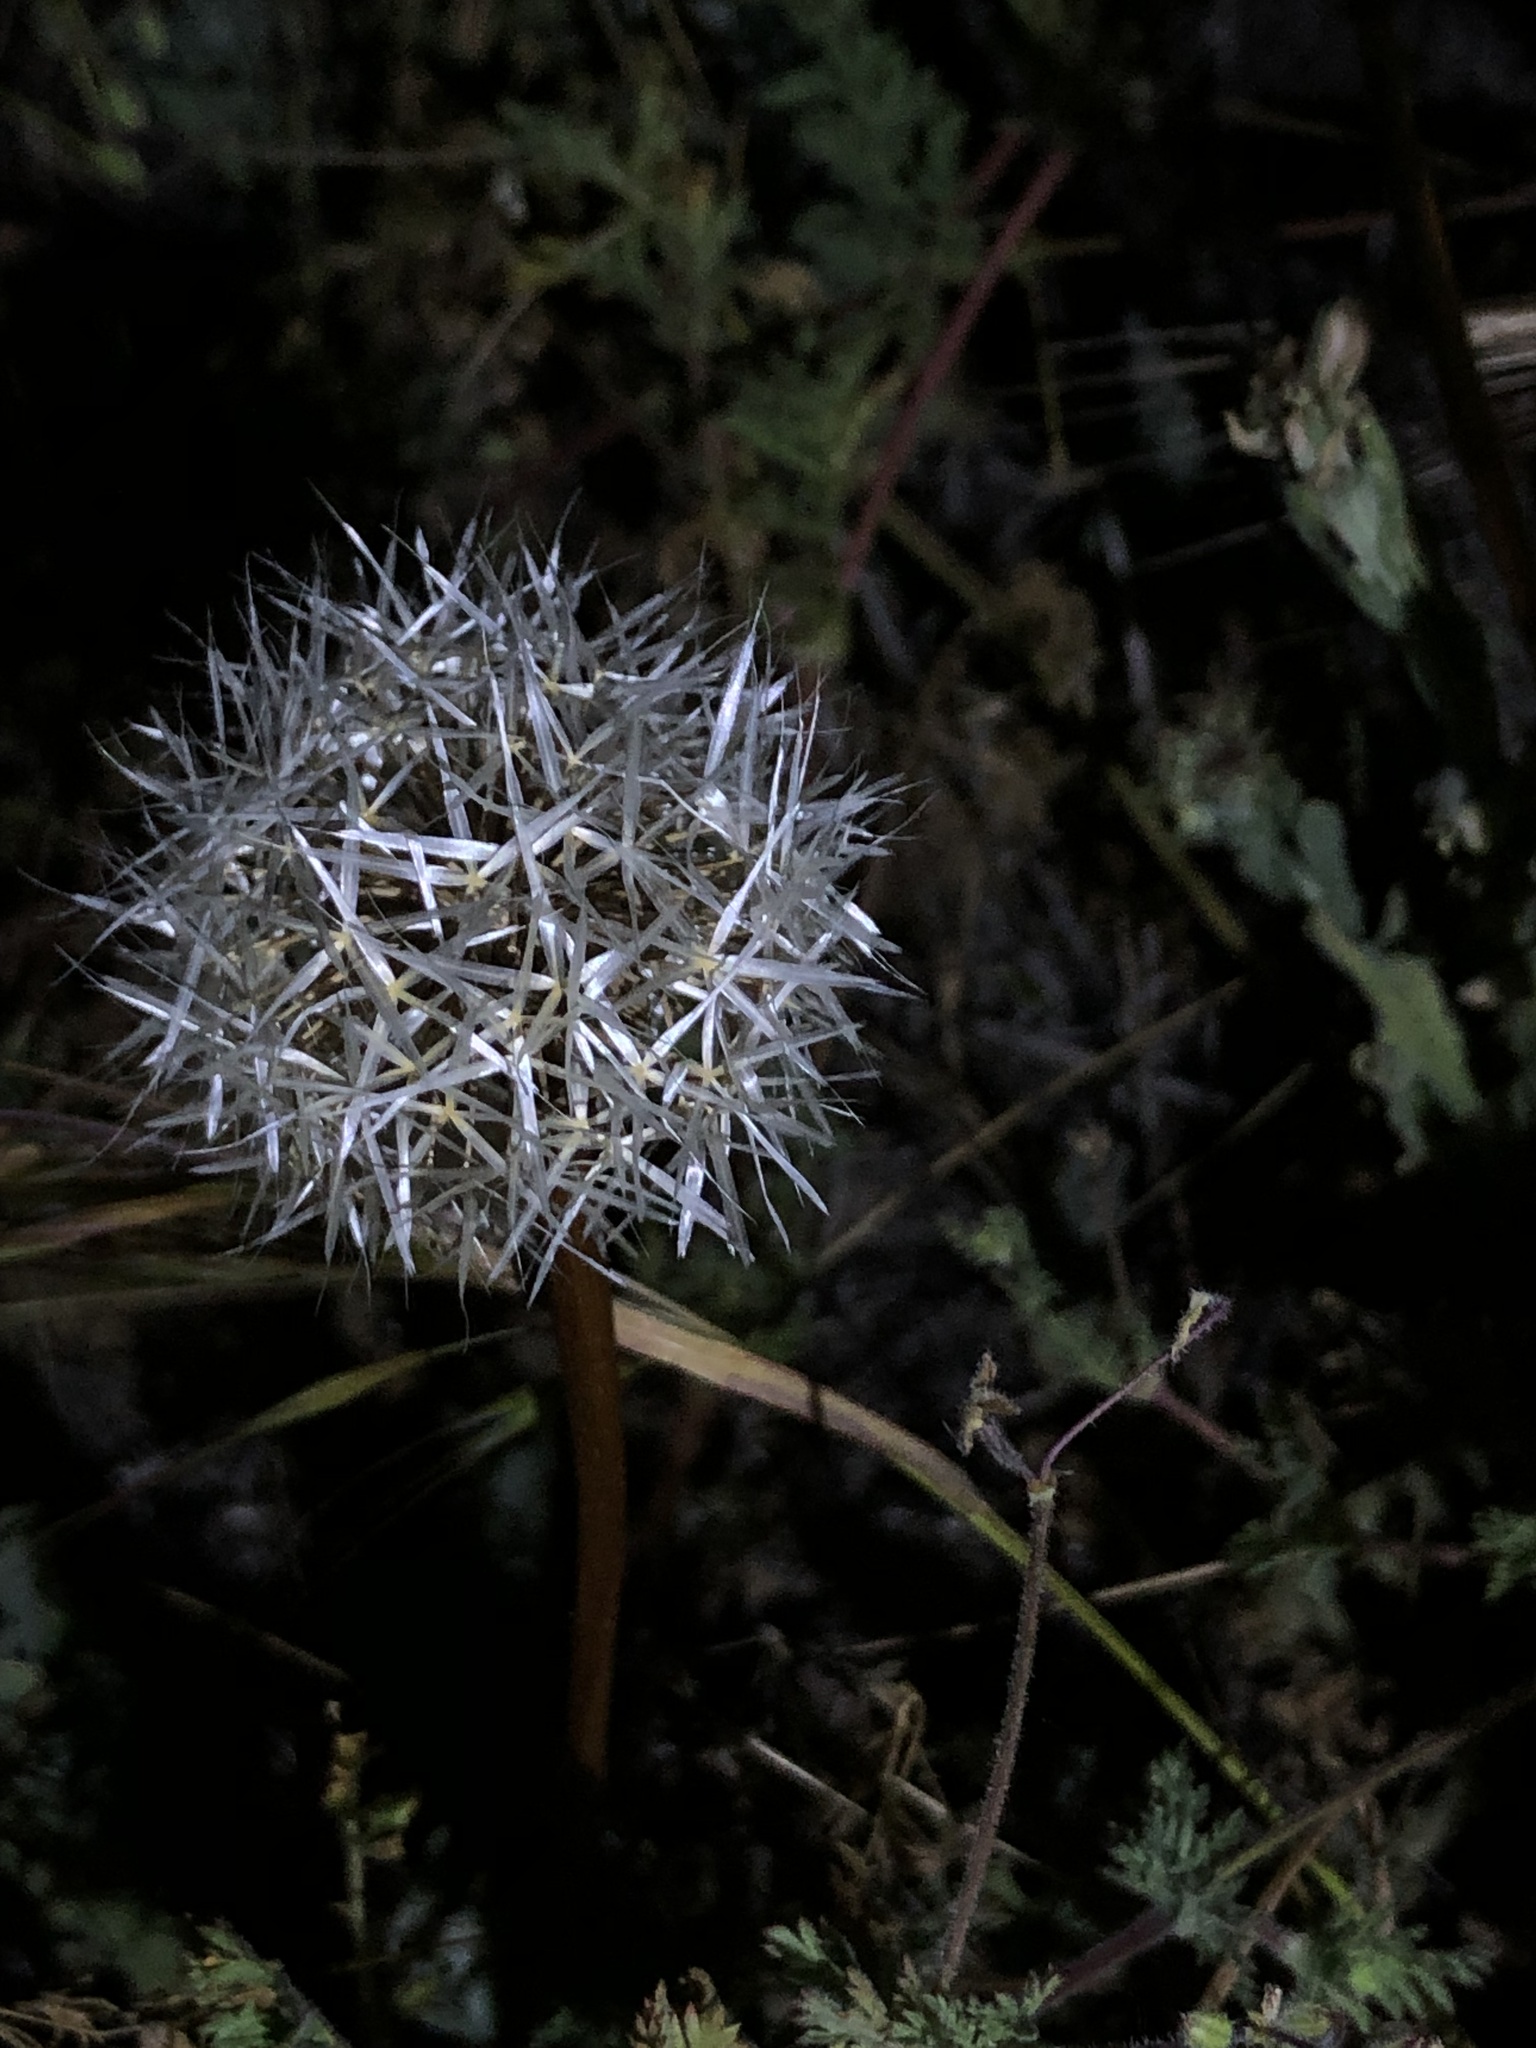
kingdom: Plantae
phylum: Tracheophyta
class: Magnoliopsida
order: Asterales
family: Asteraceae
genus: Microseris
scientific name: Microseris lindleyi
